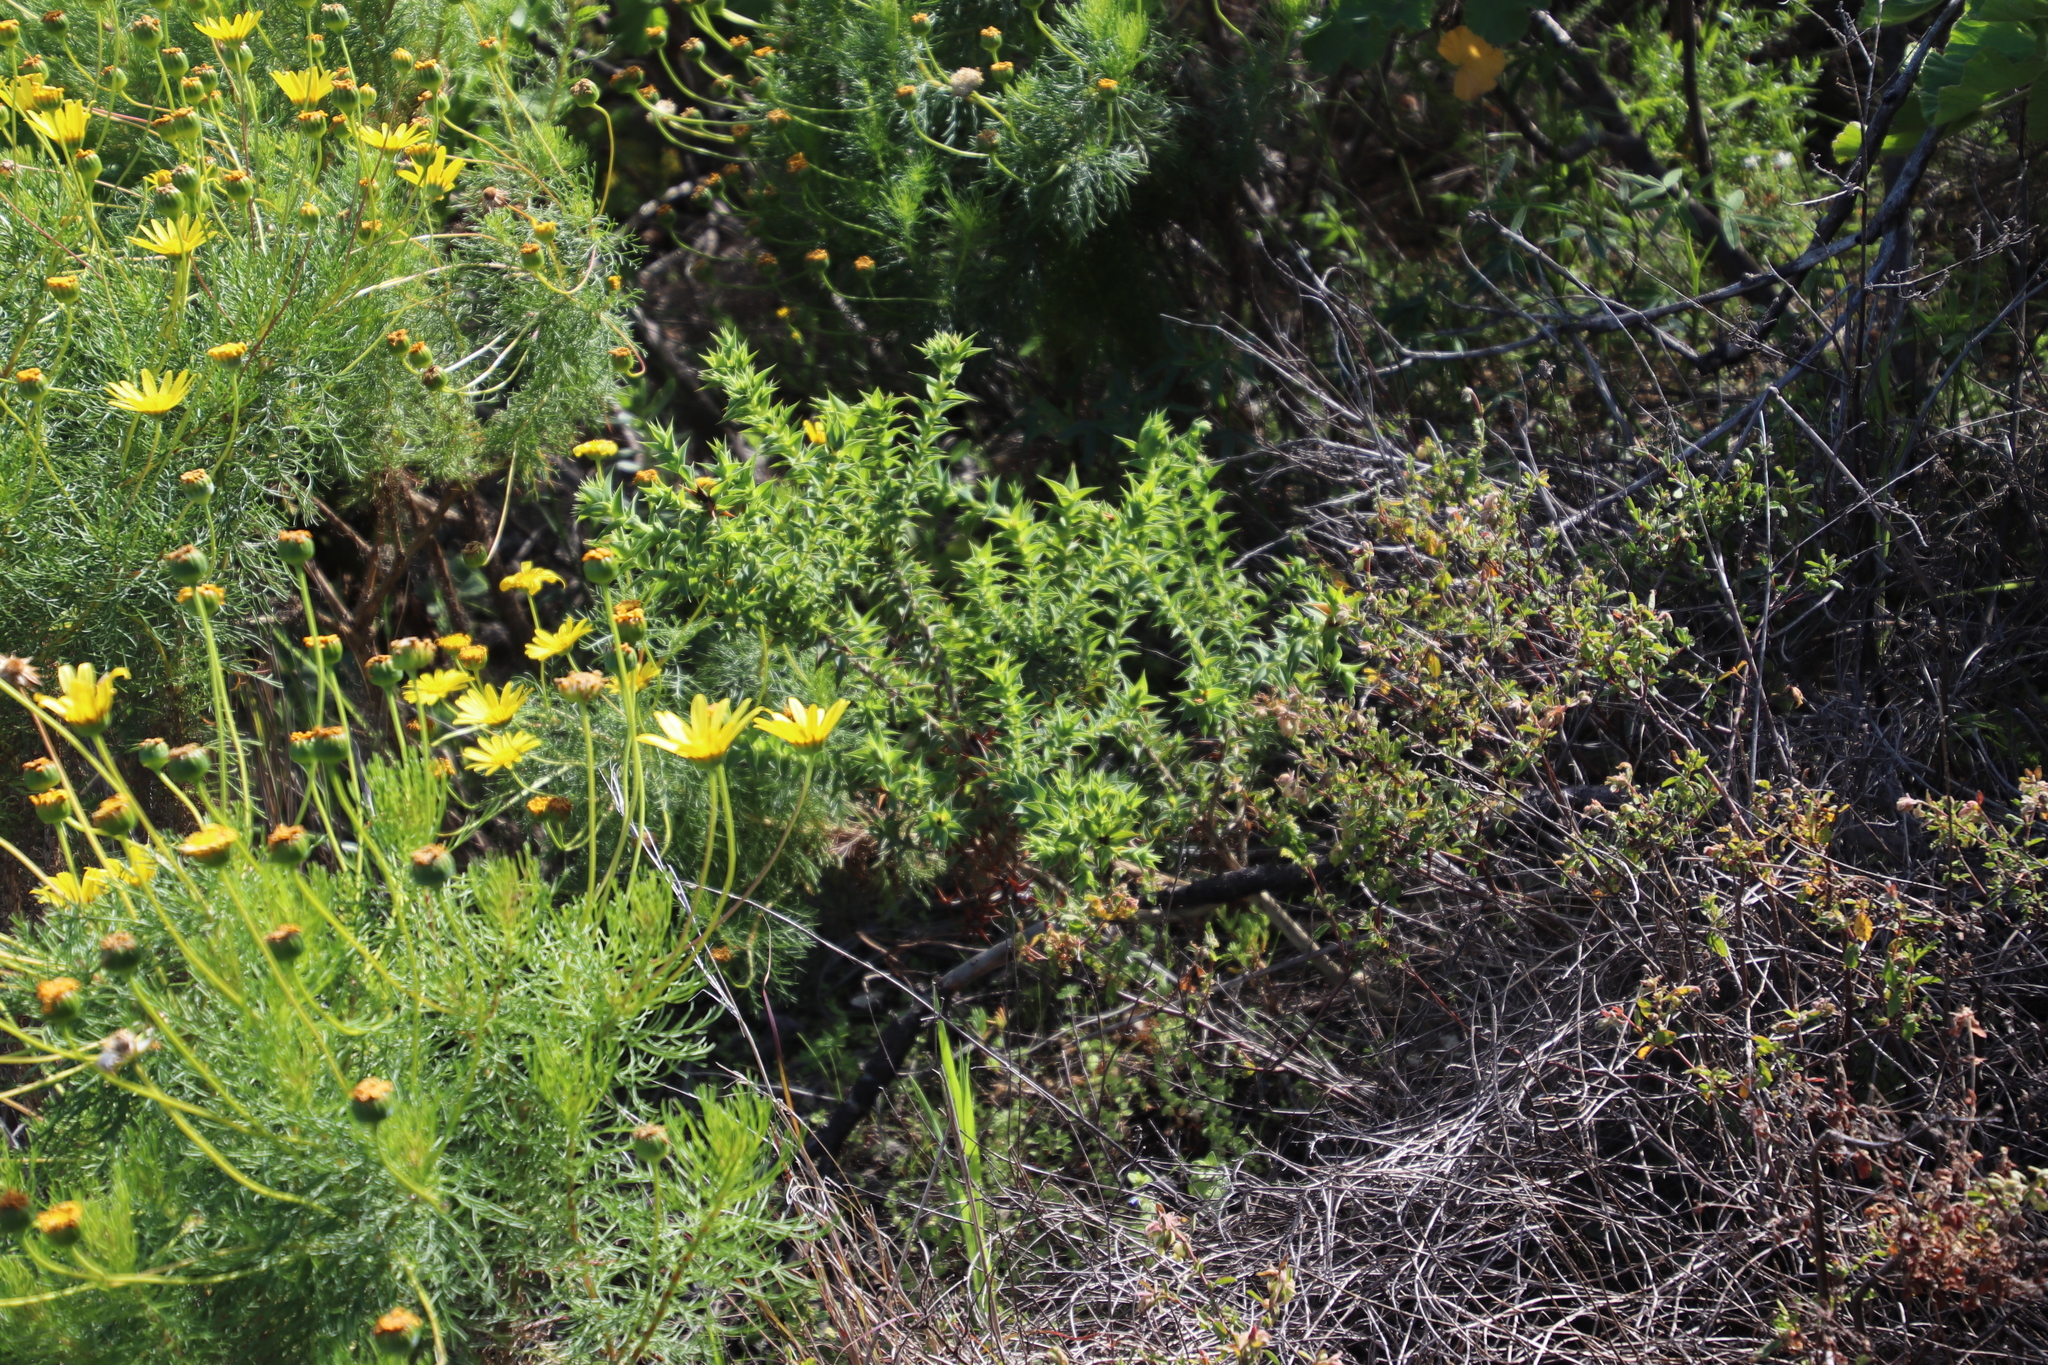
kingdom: Plantae
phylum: Tracheophyta
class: Magnoliopsida
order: Fabales
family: Fabaceae
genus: Aspalathus
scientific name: Aspalathus cordata
